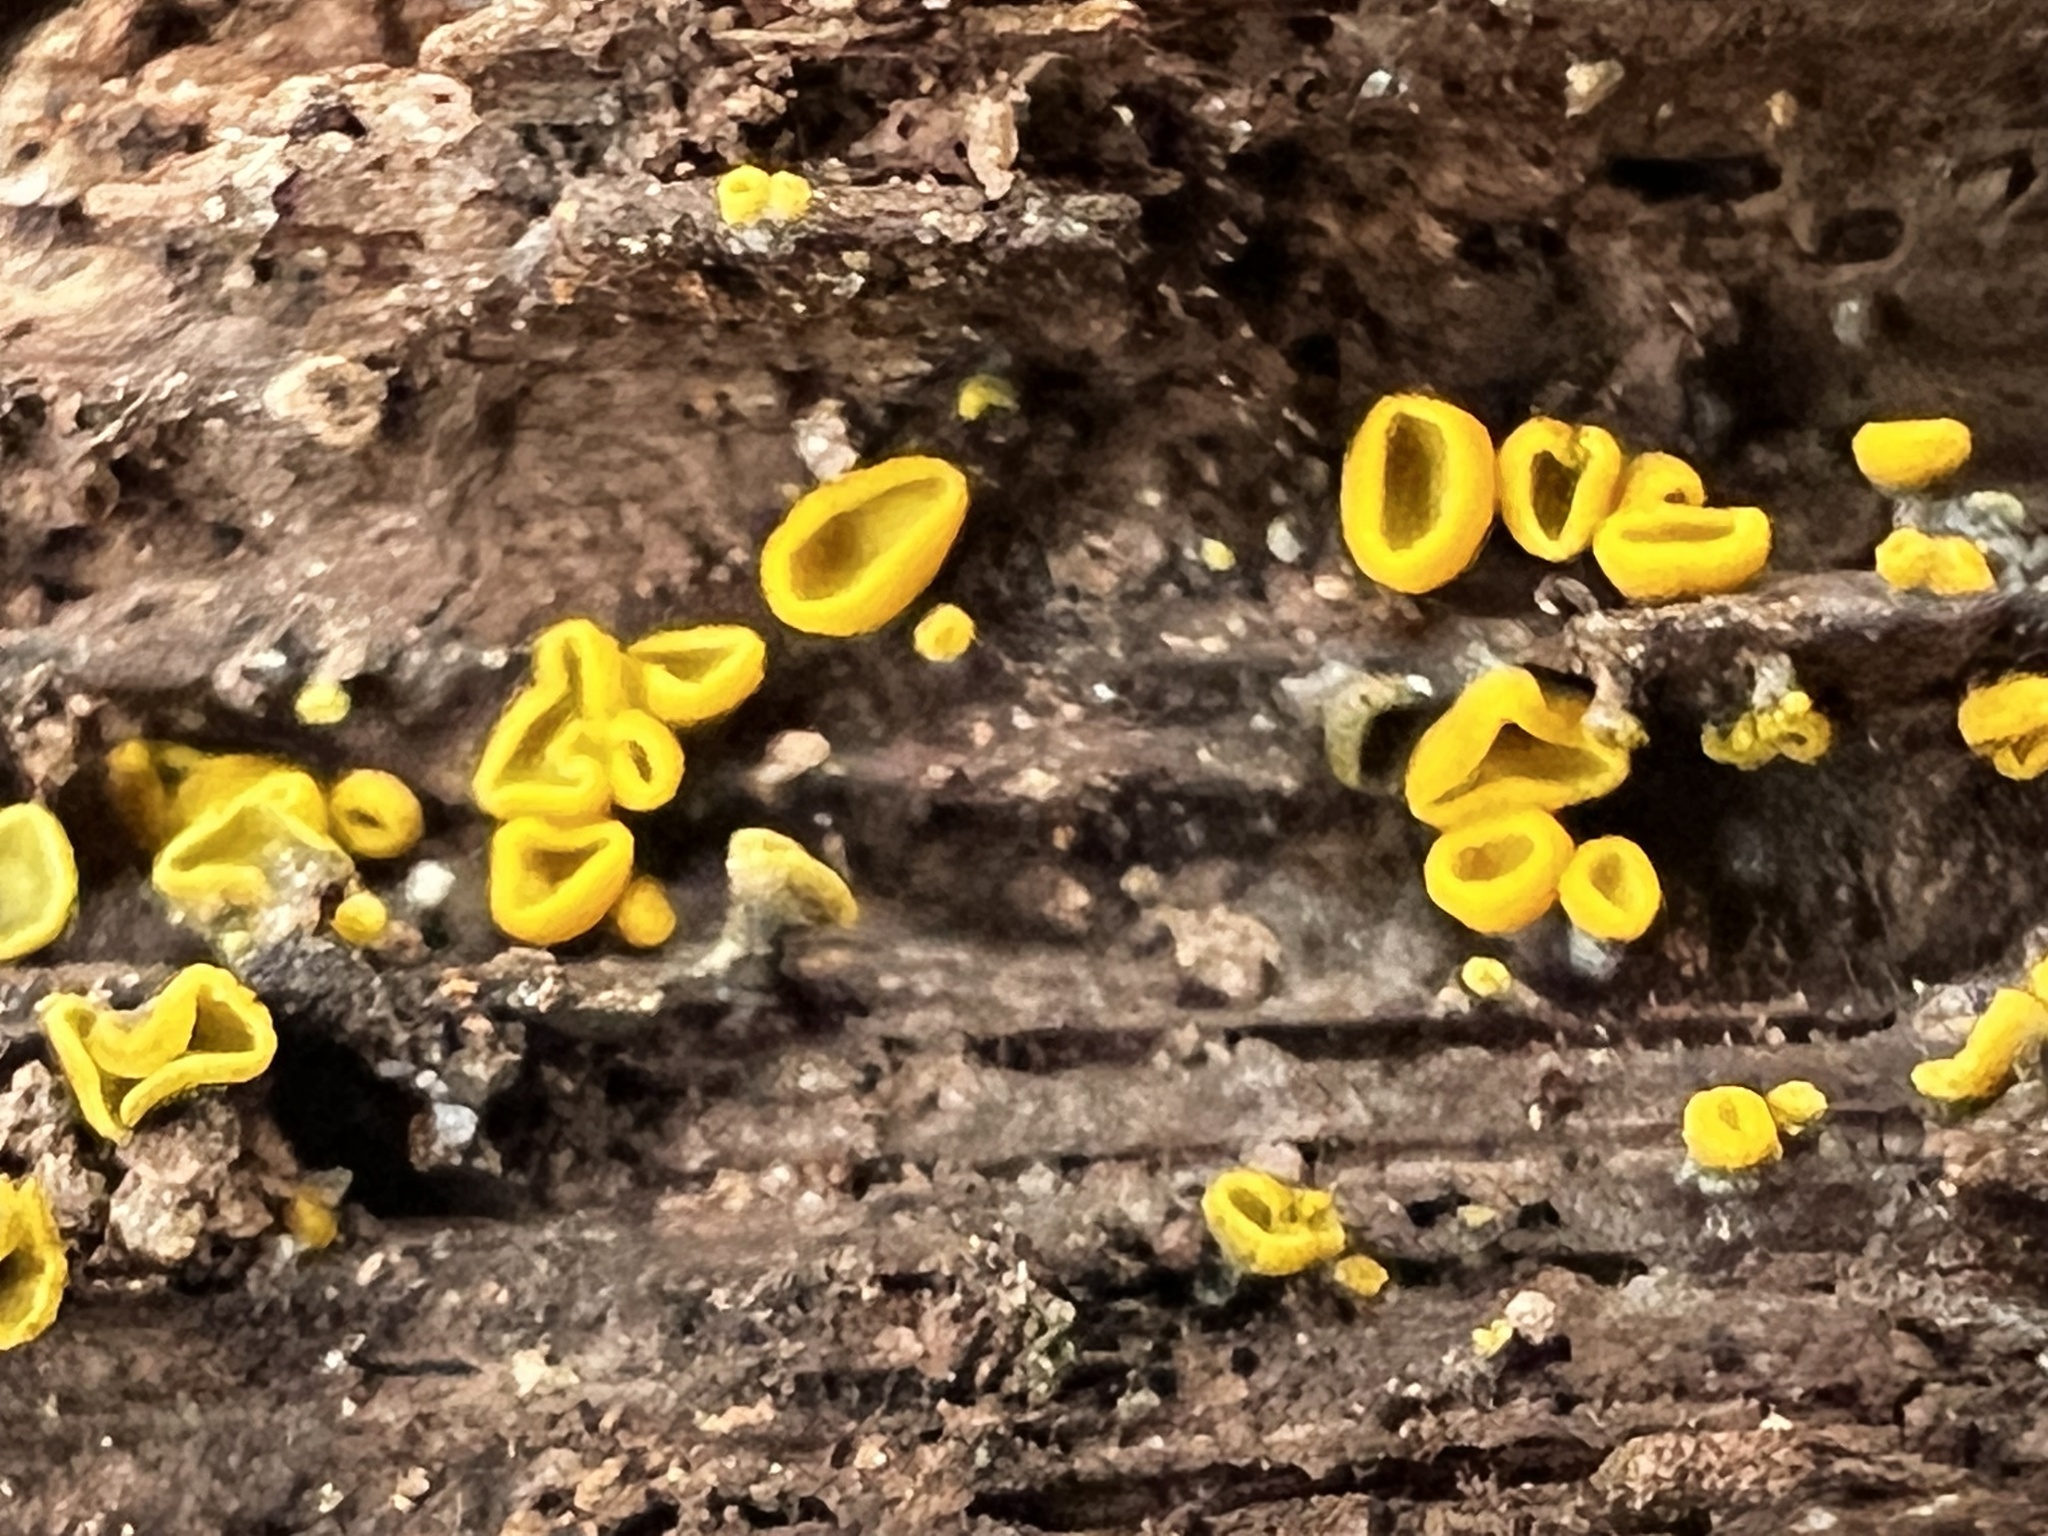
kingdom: Fungi
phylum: Ascomycota
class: Leotiomycetes
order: Helotiales
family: Chlorospleniaceae
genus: Chlorosplenium
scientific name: Chlorosplenium chlora
